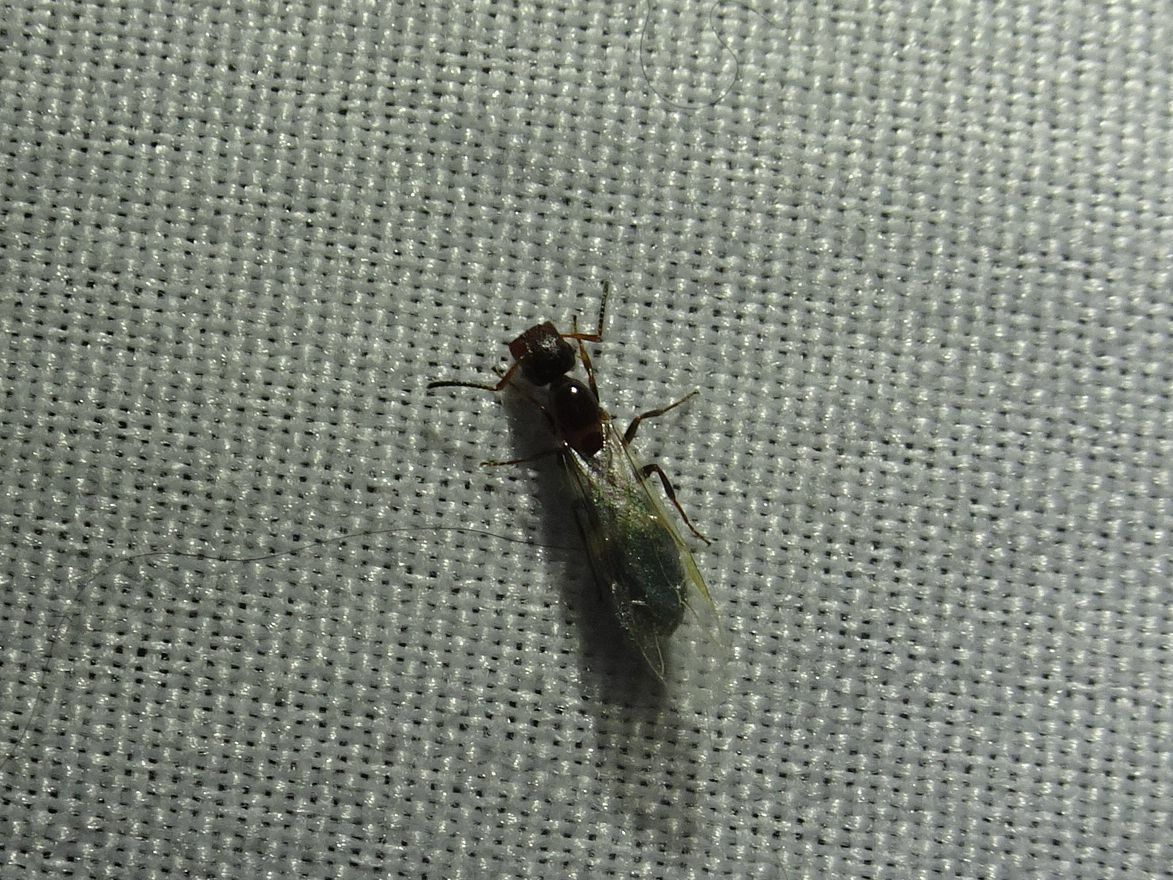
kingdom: Animalia
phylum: Arthropoda
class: Insecta
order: Hymenoptera
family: Formicidae
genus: Camponotus
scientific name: Camponotus truncatus
